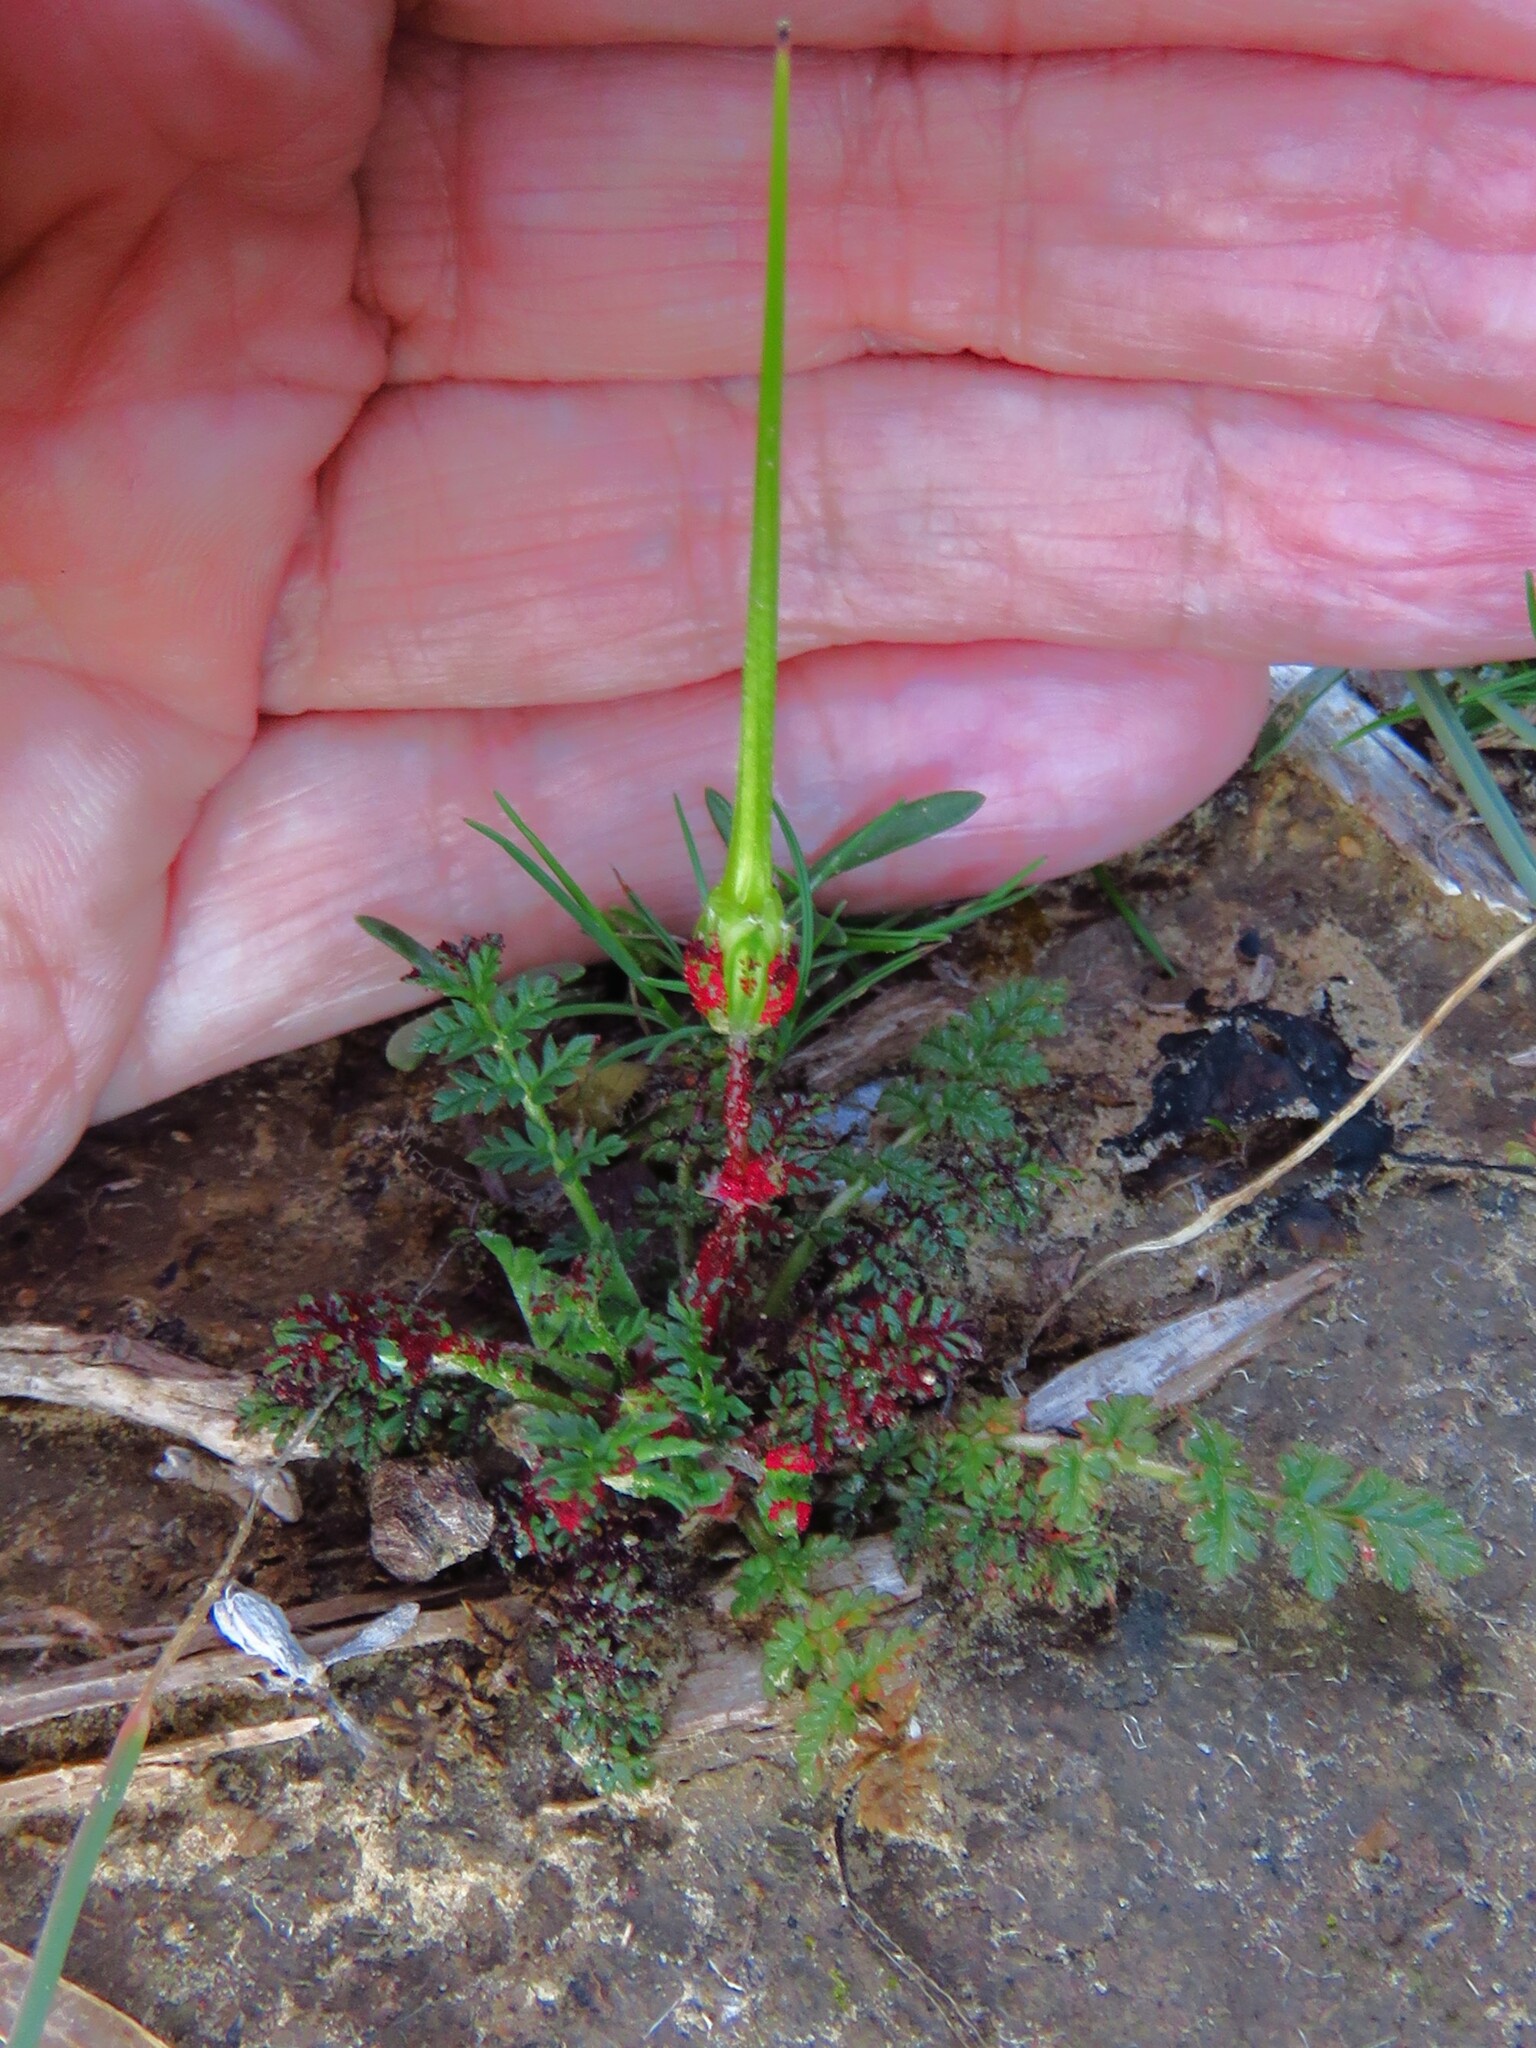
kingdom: Plantae
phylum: Tracheophyta
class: Magnoliopsida
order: Geraniales
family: Geraniaceae
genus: Erodium
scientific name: Erodium cicutarium
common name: Common stork's-bill
